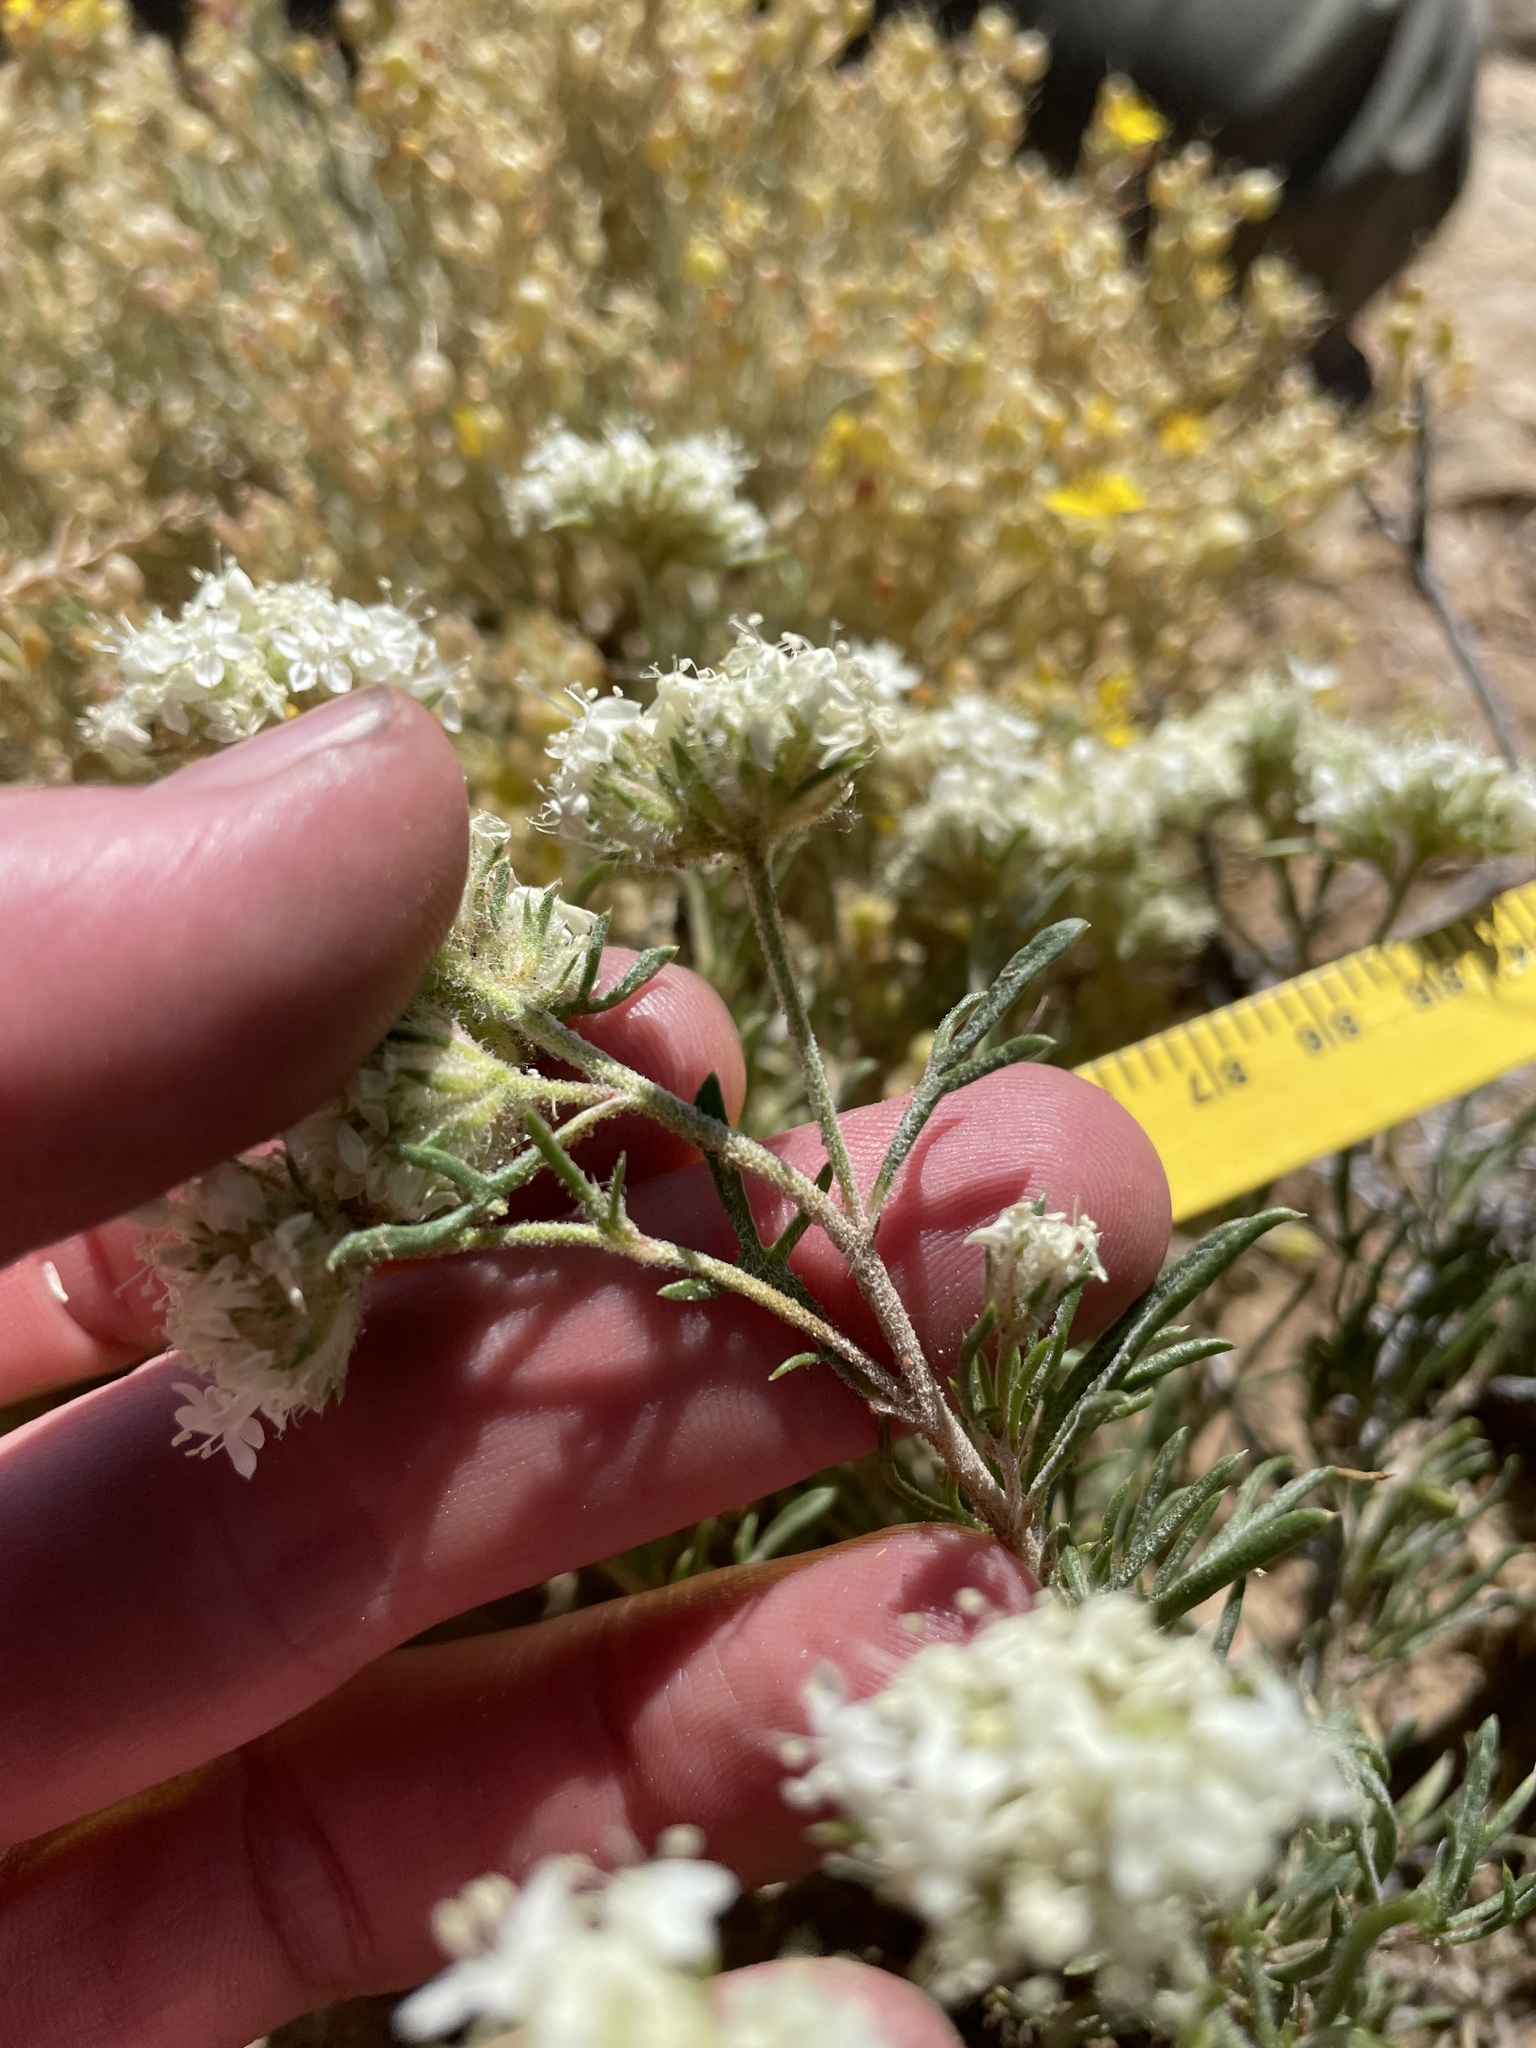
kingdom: Plantae
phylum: Tracheophyta
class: Magnoliopsida
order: Ericales
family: Polemoniaceae
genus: Ipomopsis
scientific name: Ipomopsis congesta
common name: Ball-head gilia
